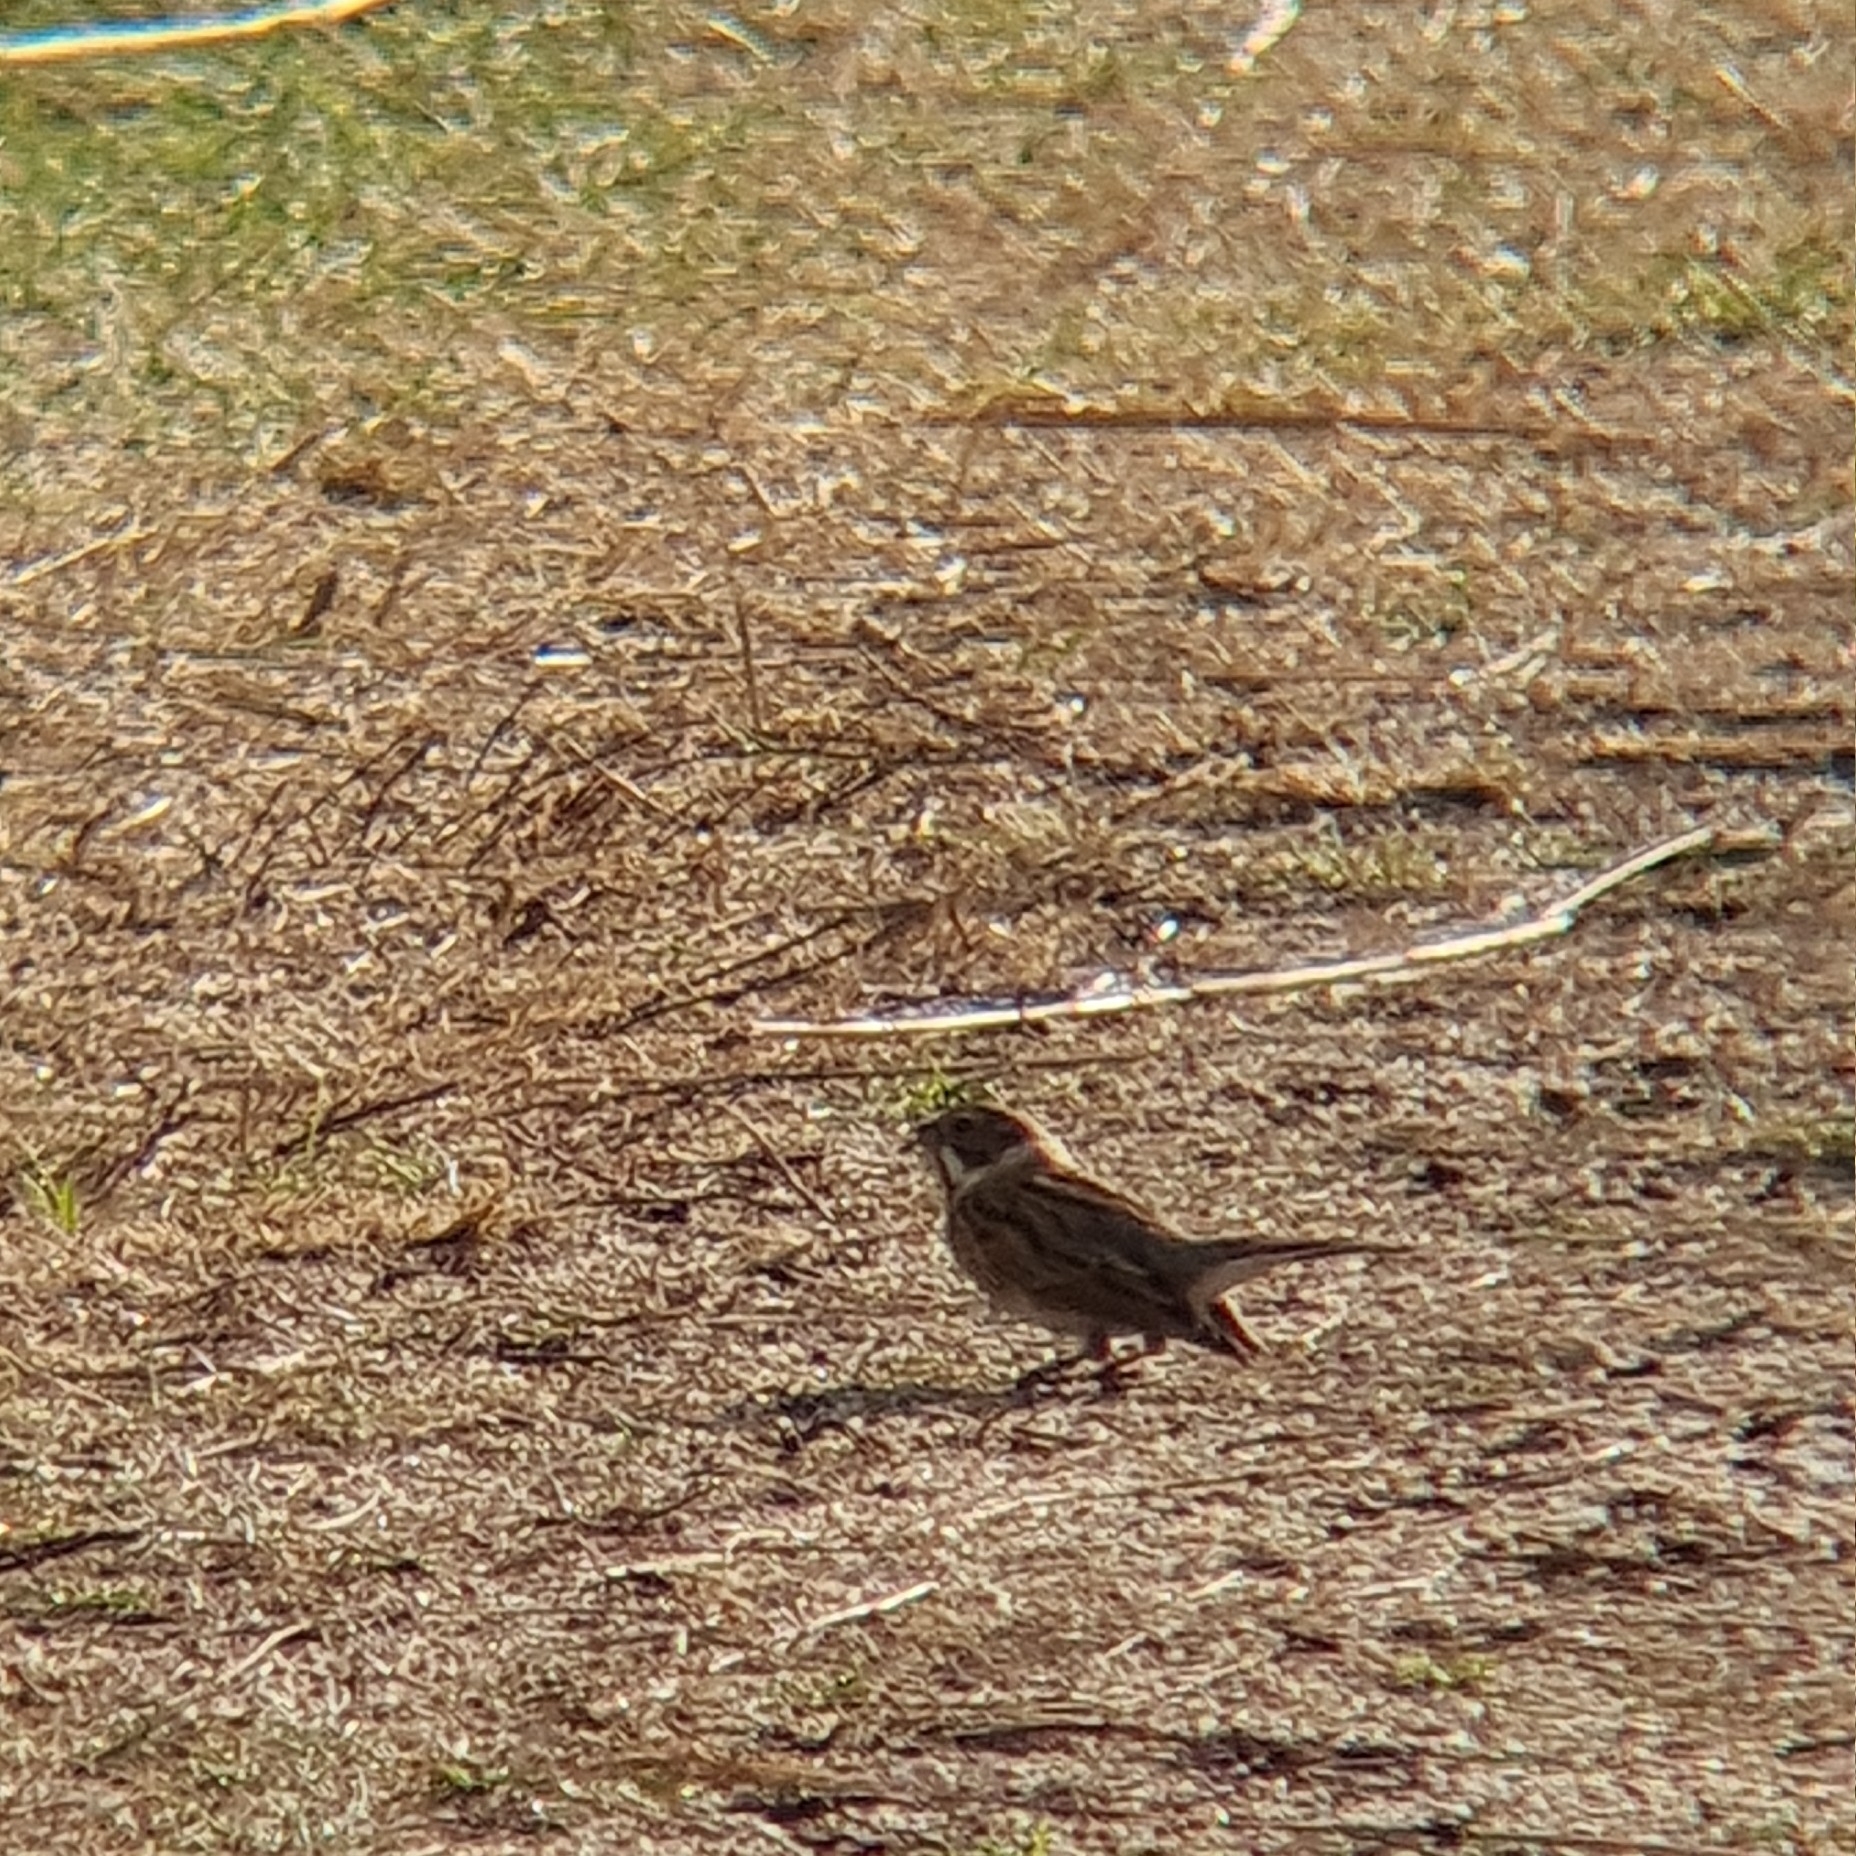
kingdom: Animalia
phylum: Chordata
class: Aves
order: Passeriformes
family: Emberizidae
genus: Emberiza
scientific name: Emberiza schoeniclus
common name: Reed bunting
